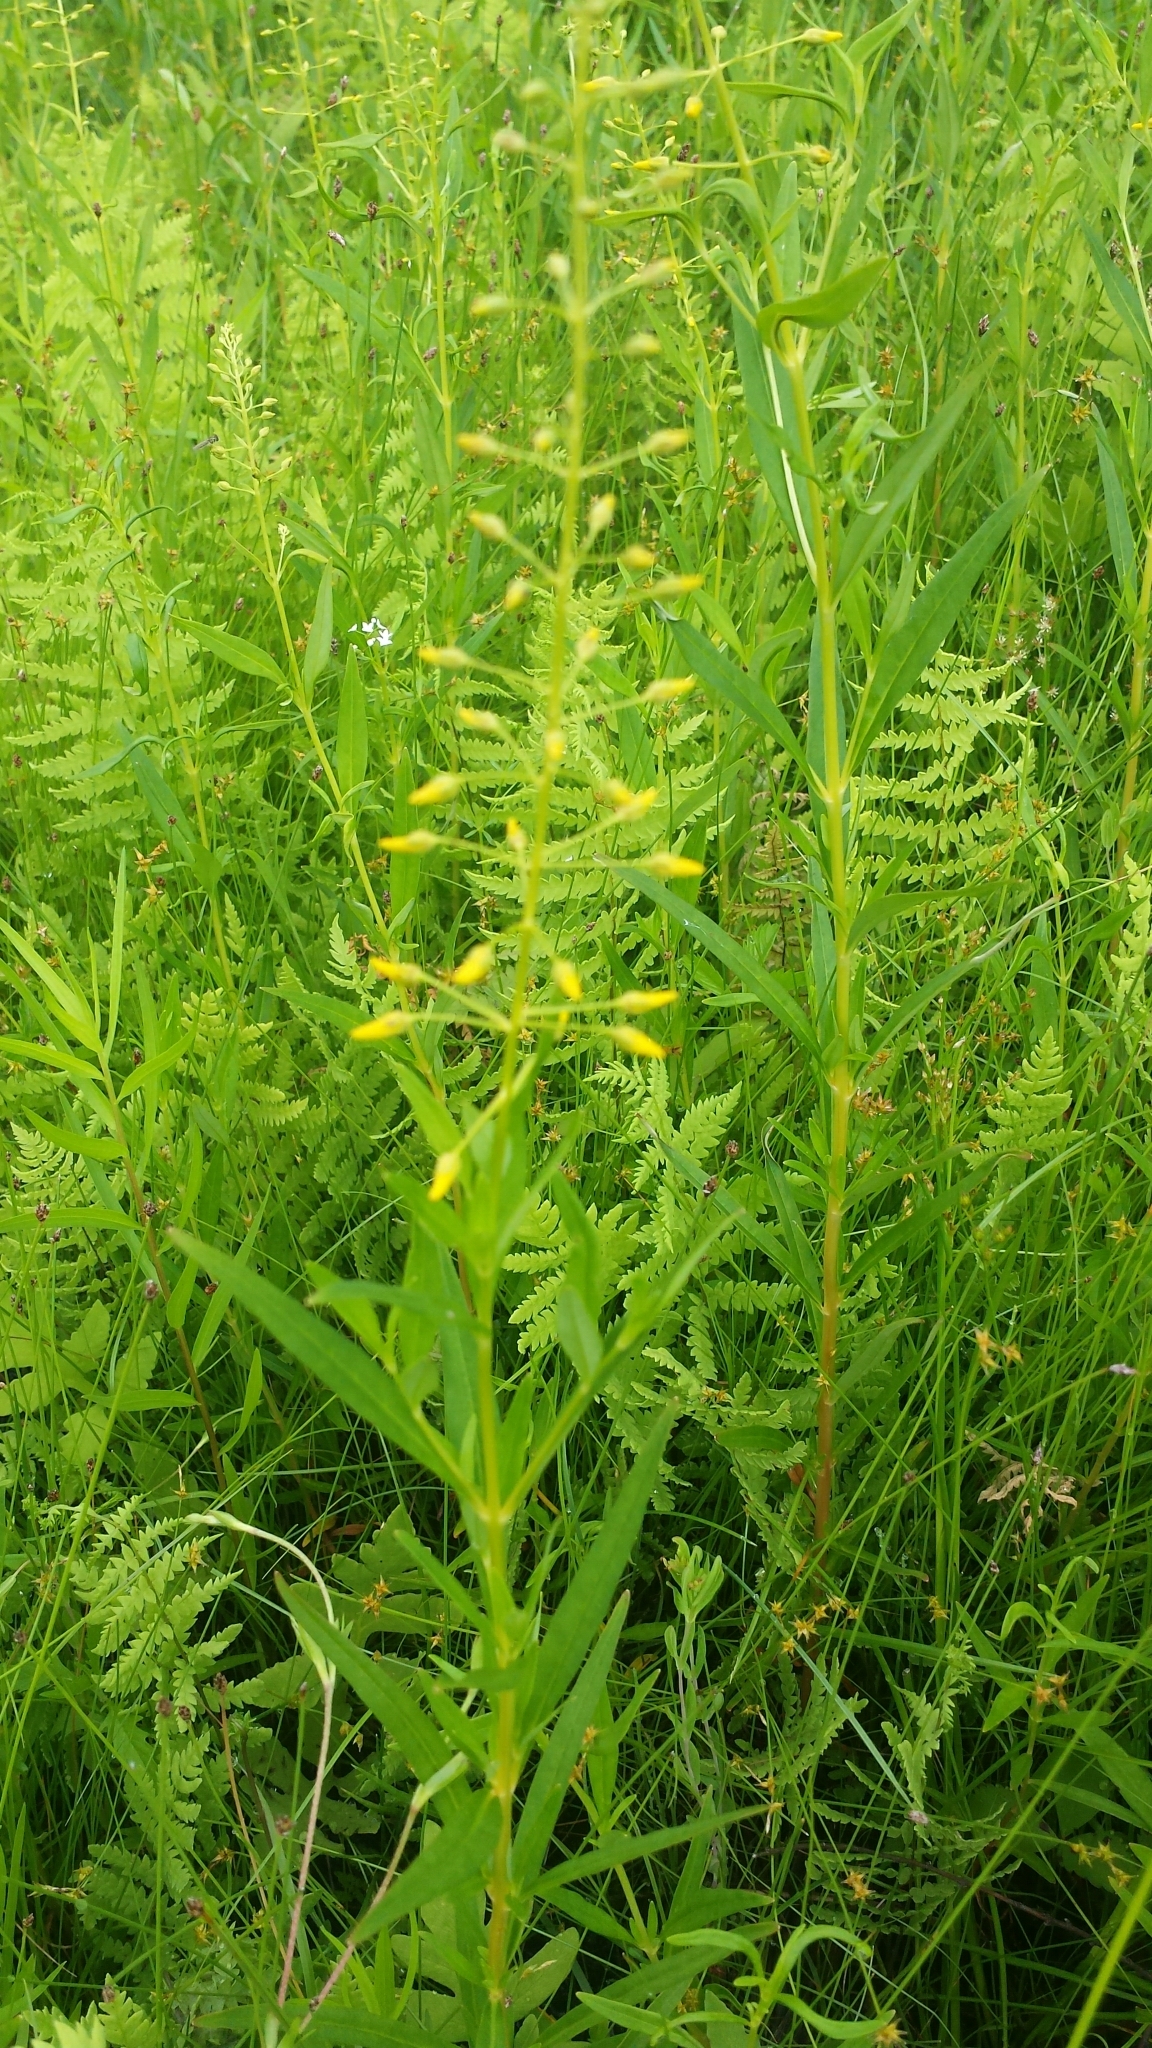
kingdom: Plantae
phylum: Tracheophyta
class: Magnoliopsida
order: Ericales
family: Primulaceae
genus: Lysimachia
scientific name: Lysimachia terrestris
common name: Lake loosestrife
